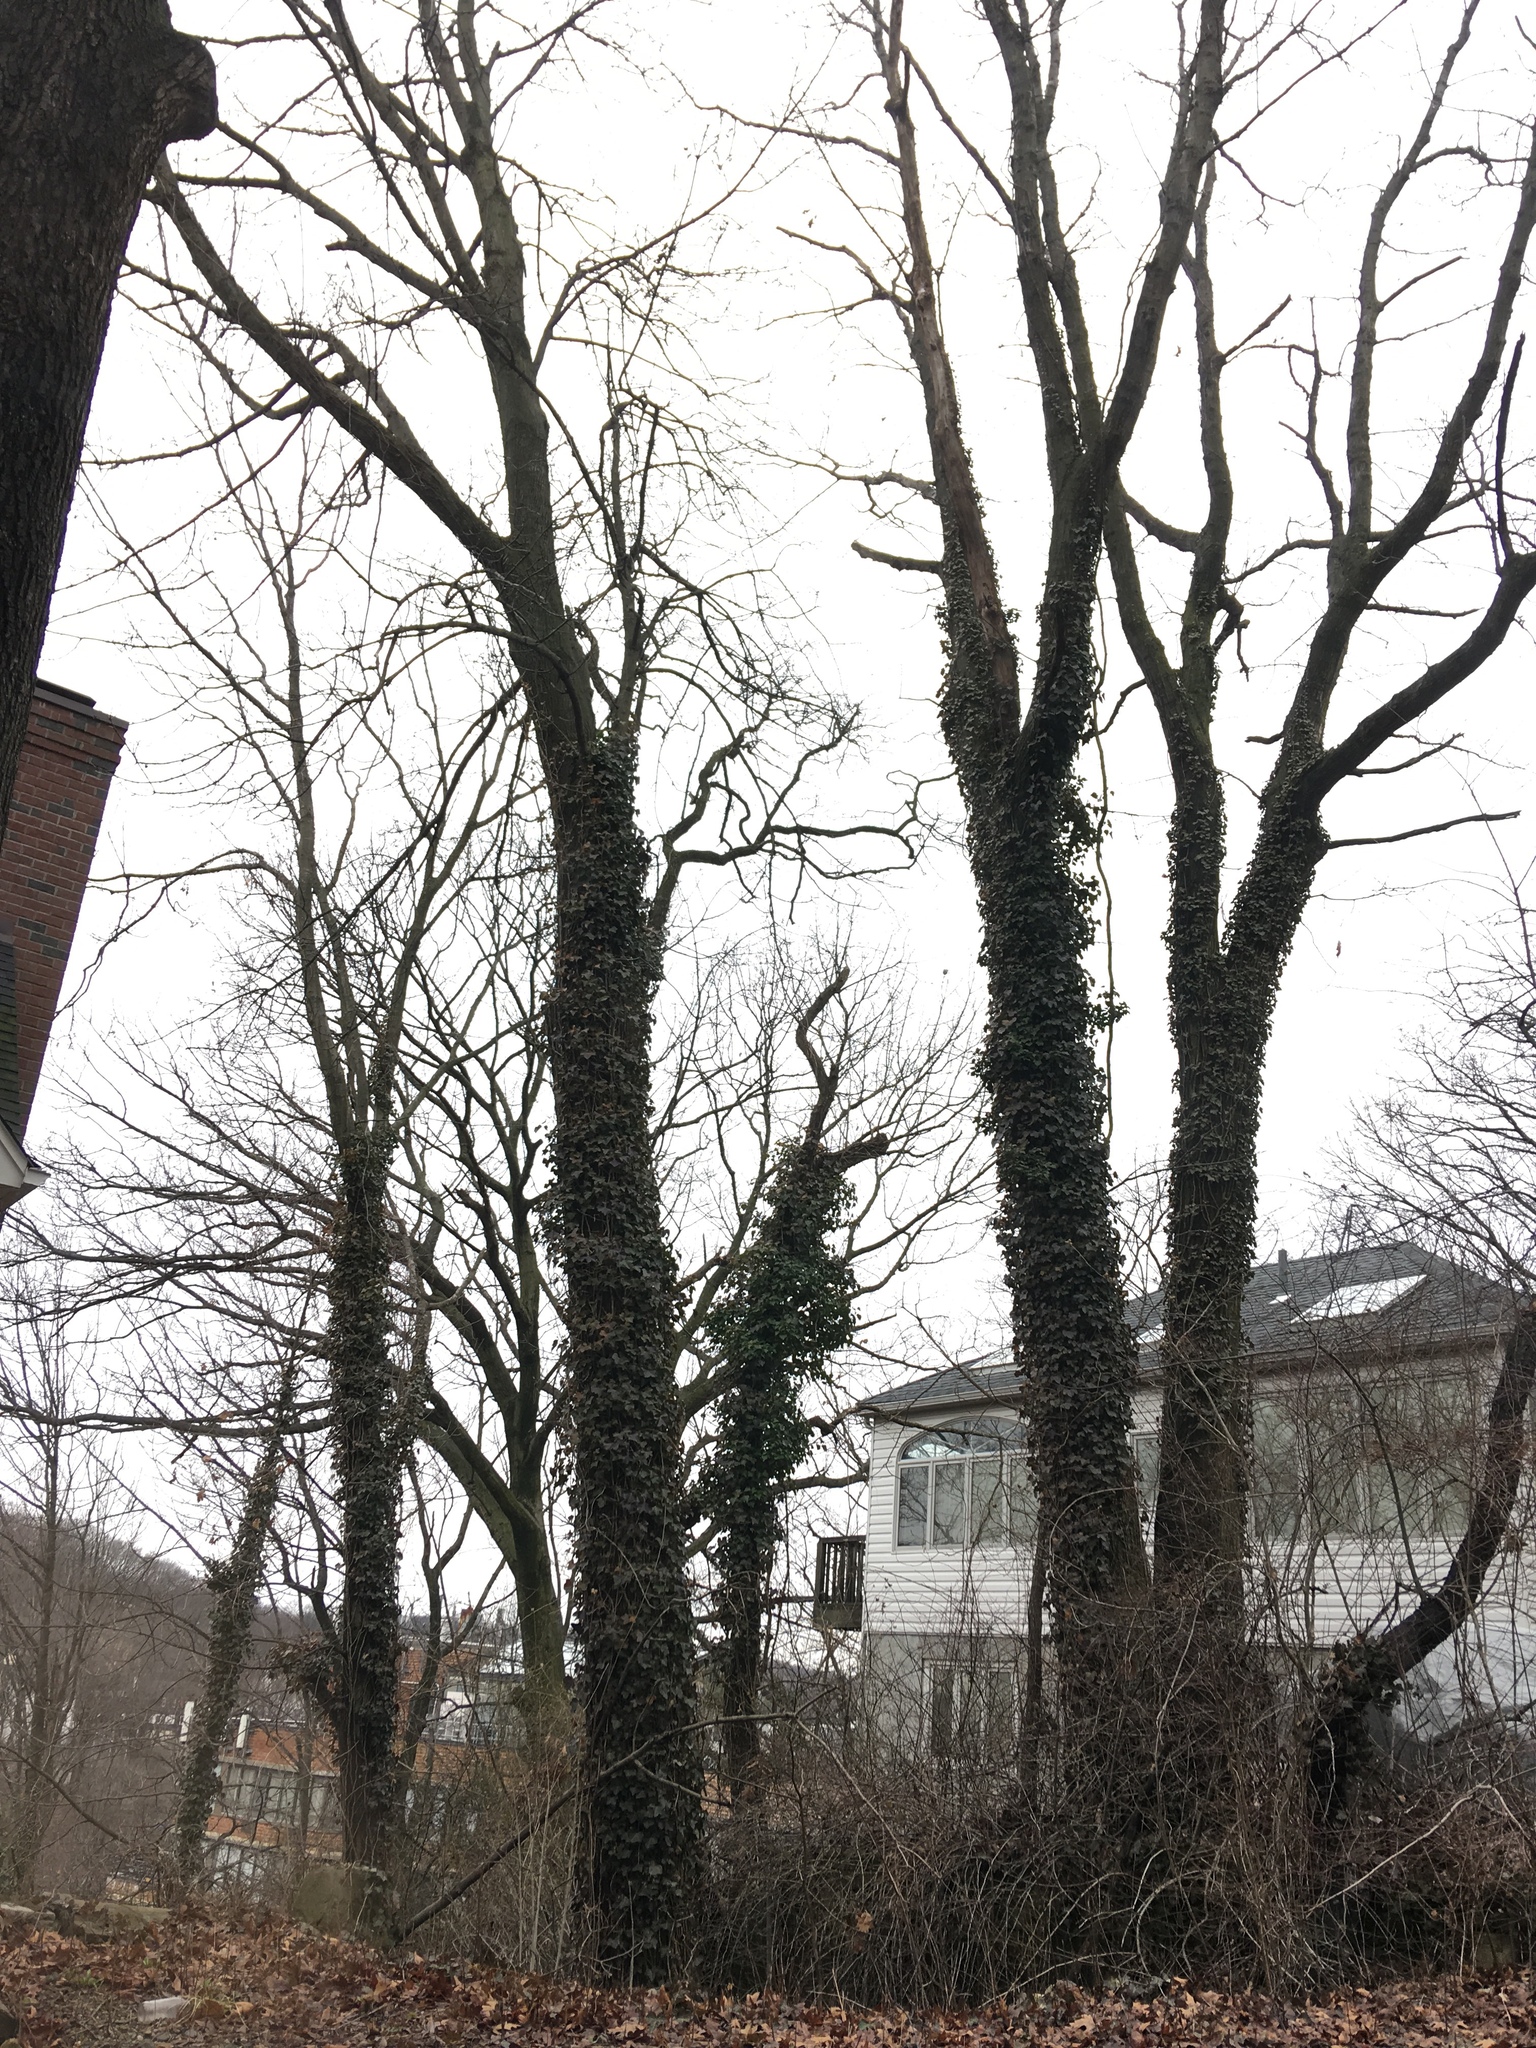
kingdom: Plantae
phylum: Tracheophyta
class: Magnoliopsida
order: Apiales
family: Araliaceae
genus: Hedera
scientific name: Hedera helix
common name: Ivy
